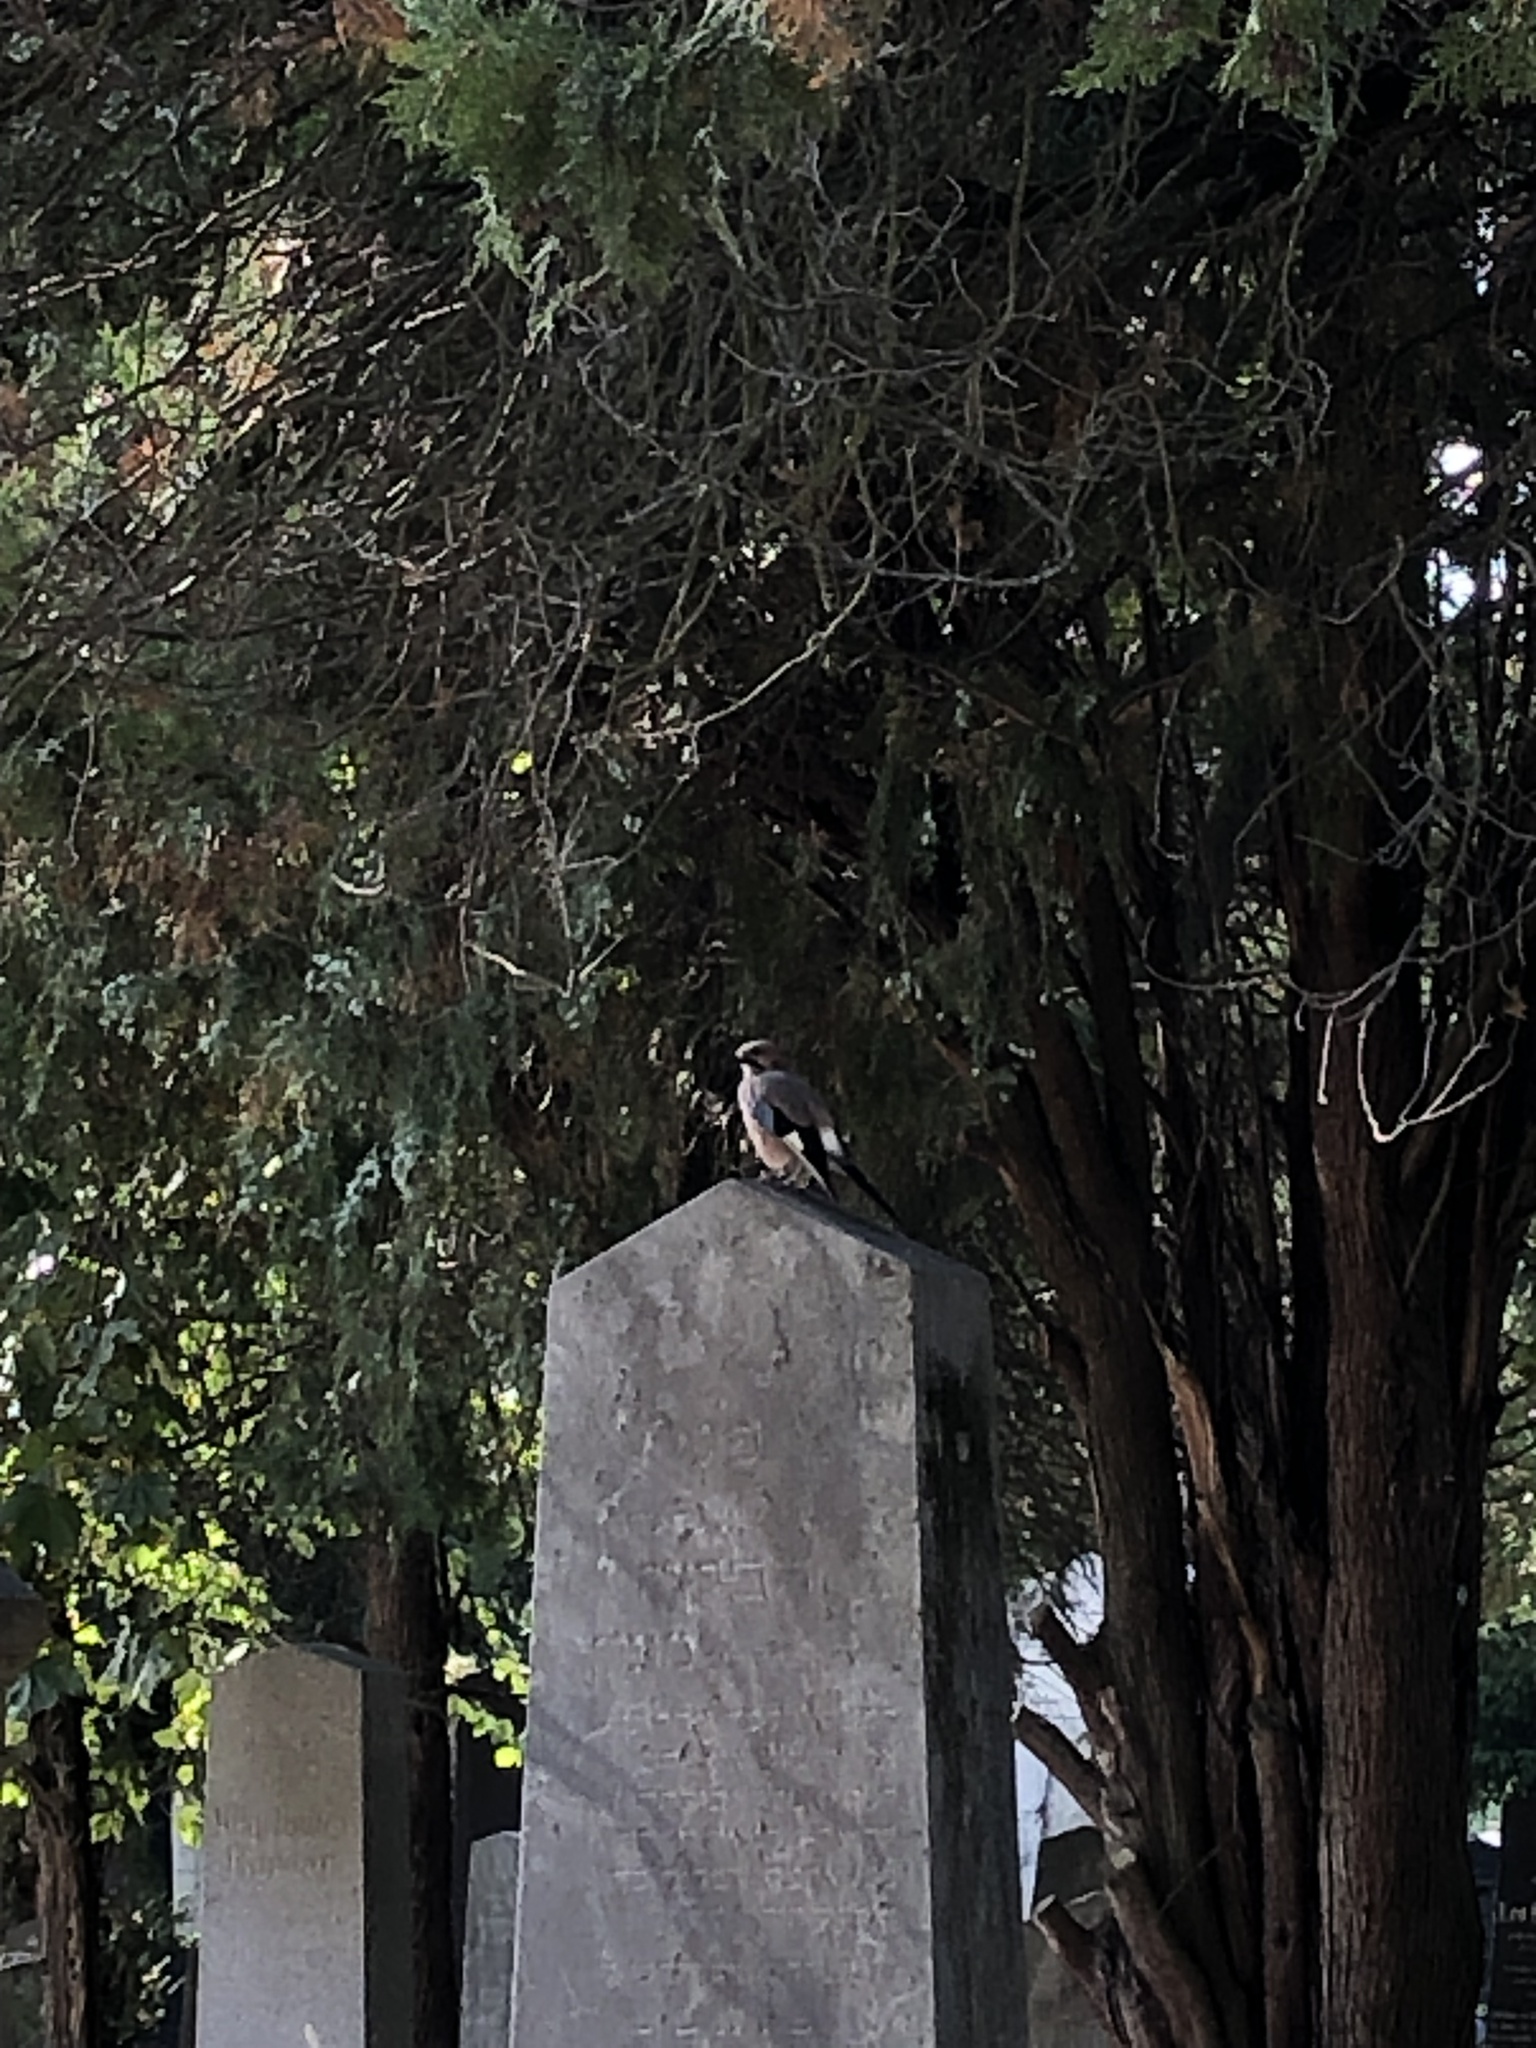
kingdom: Animalia
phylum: Chordata
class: Aves
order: Passeriformes
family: Corvidae
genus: Garrulus
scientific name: Garrulus glandarius
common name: Eurasian jay
